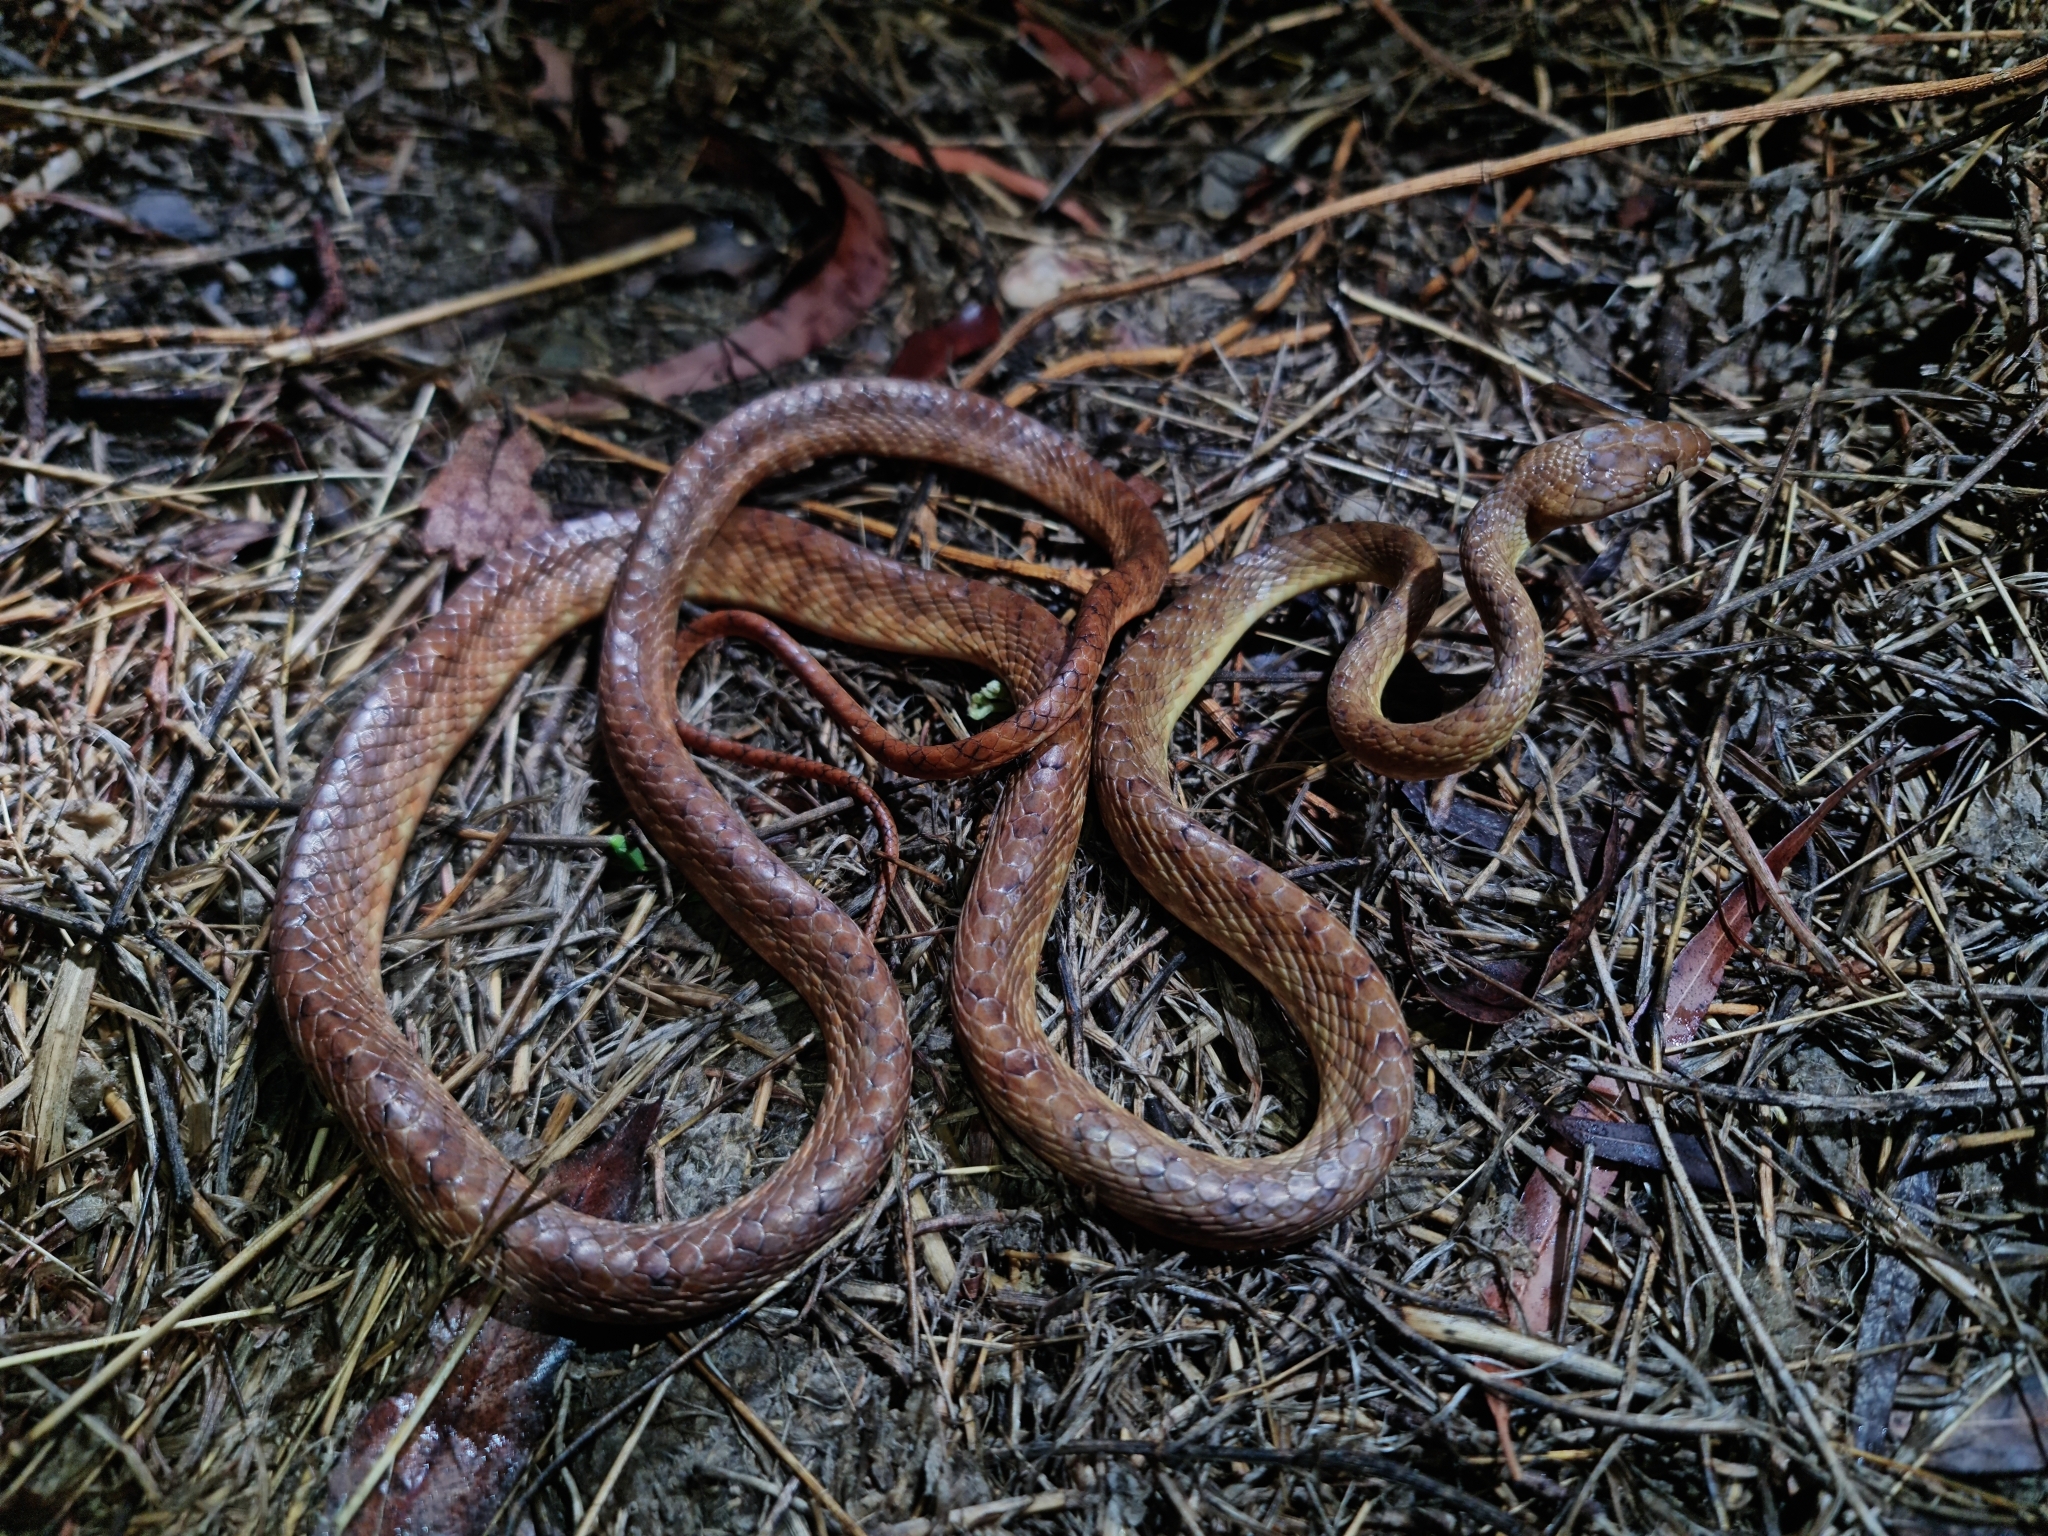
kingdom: Animalia
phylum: Chordata
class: Squamata
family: Colubridae
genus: Boiga
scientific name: Boiga irregularis
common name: Brown tree snake
